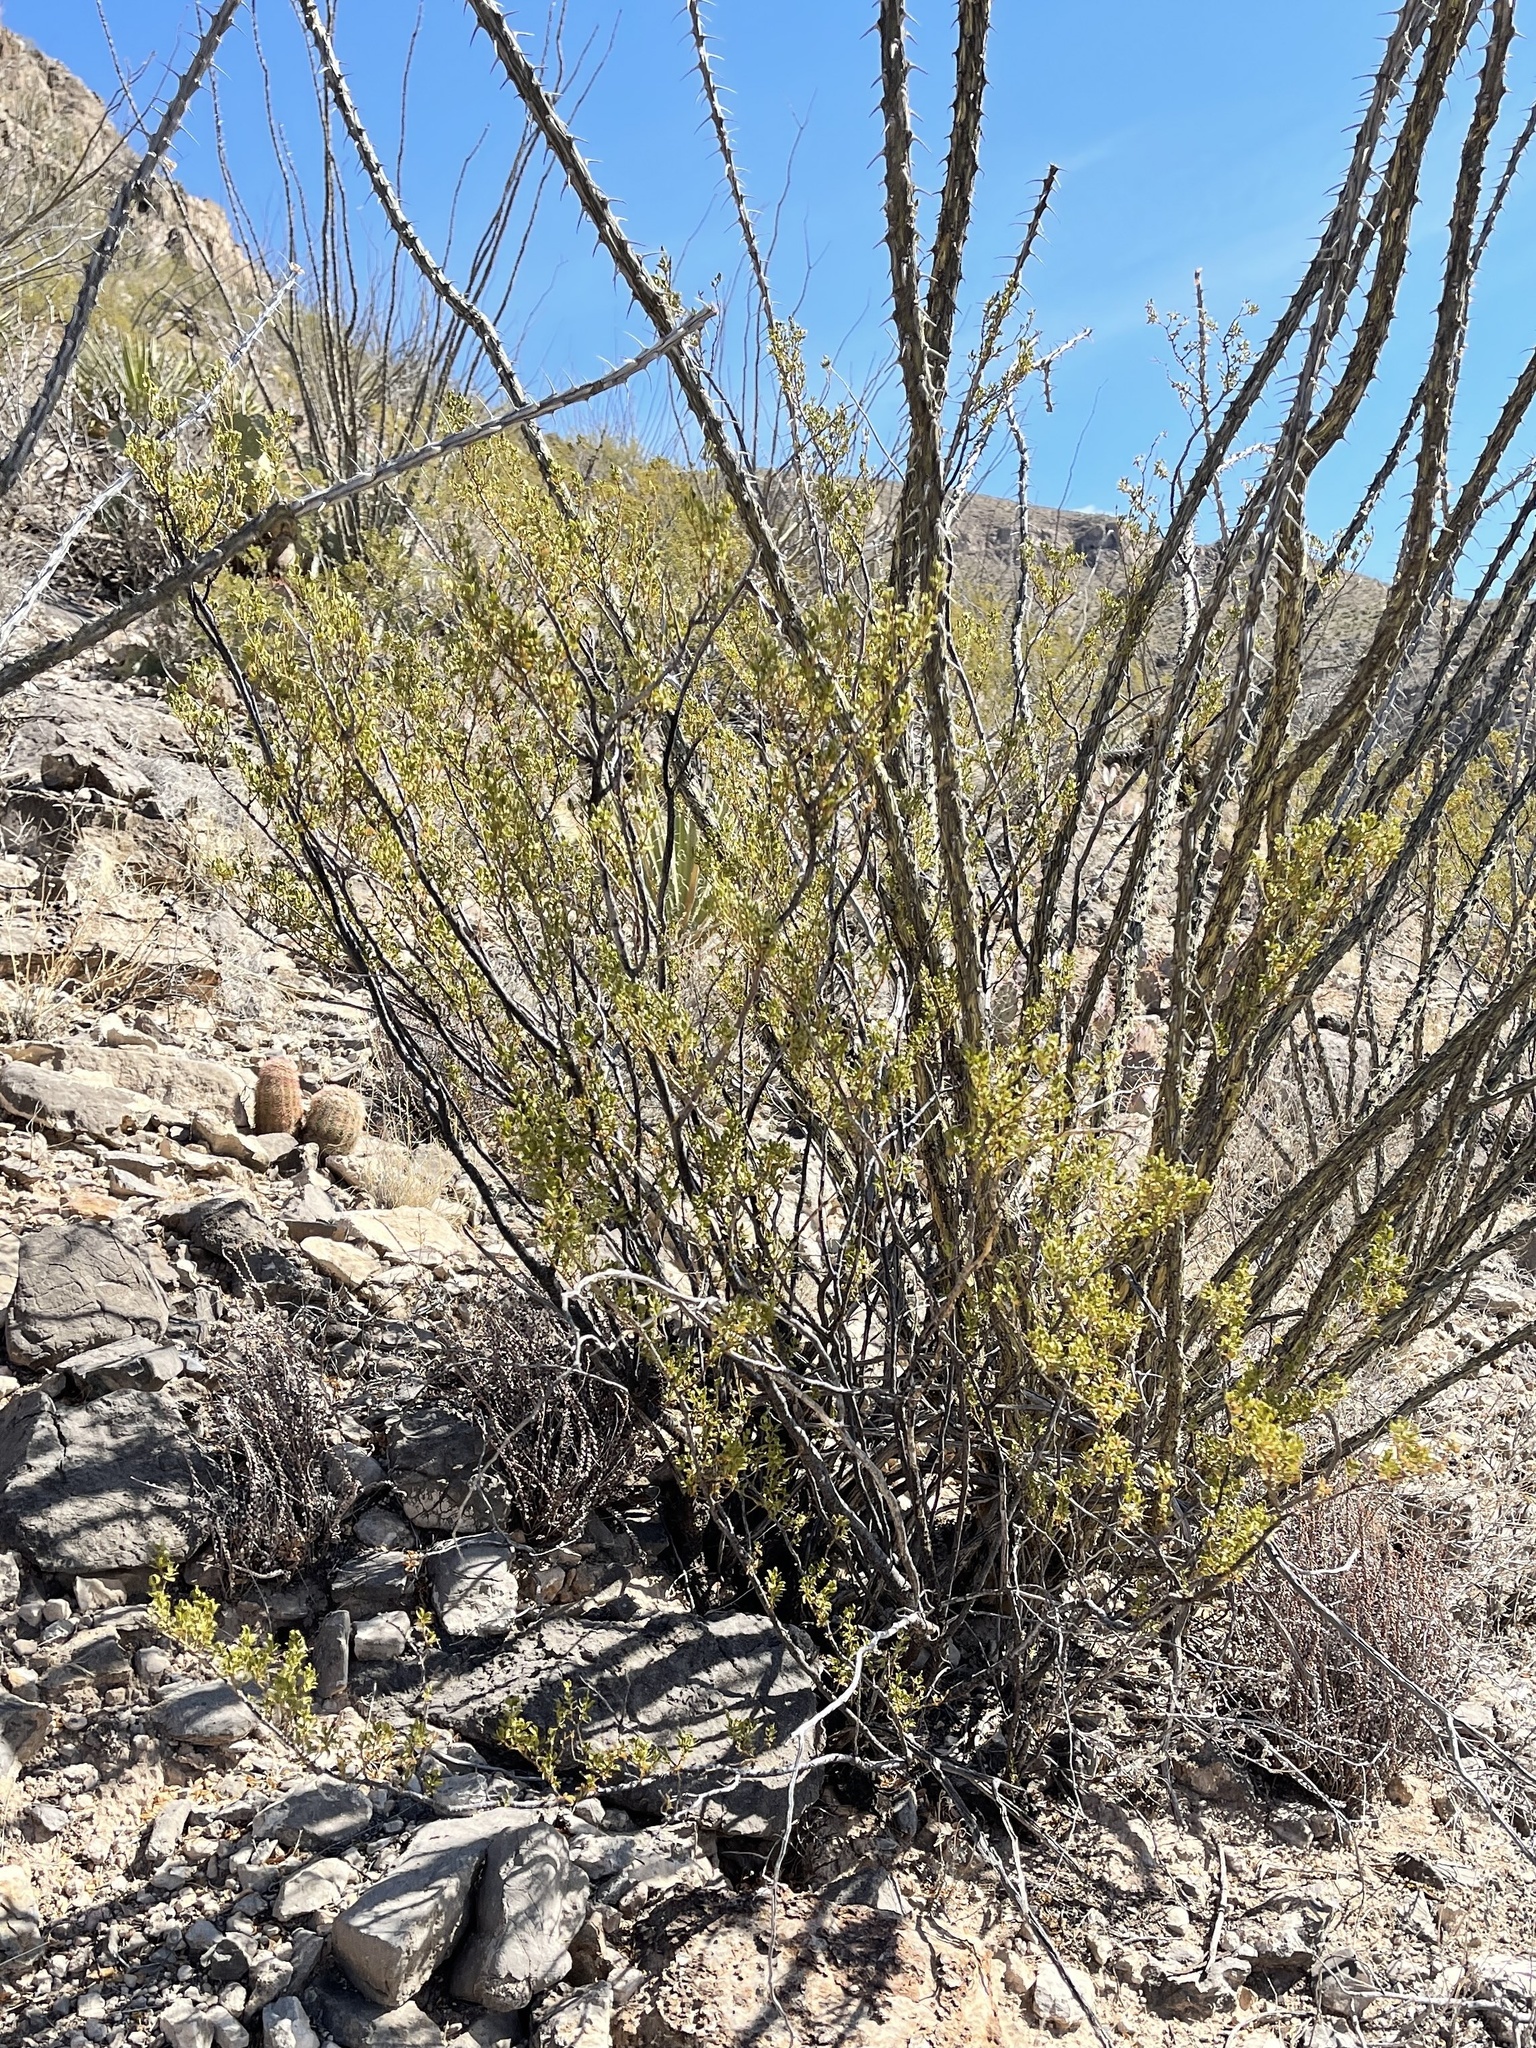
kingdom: Plantae
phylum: Tracheophyta
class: Magnoliopsida
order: Zygophyllales
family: Zygophyllaceae
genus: Larrea
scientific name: Larrea tridentata
